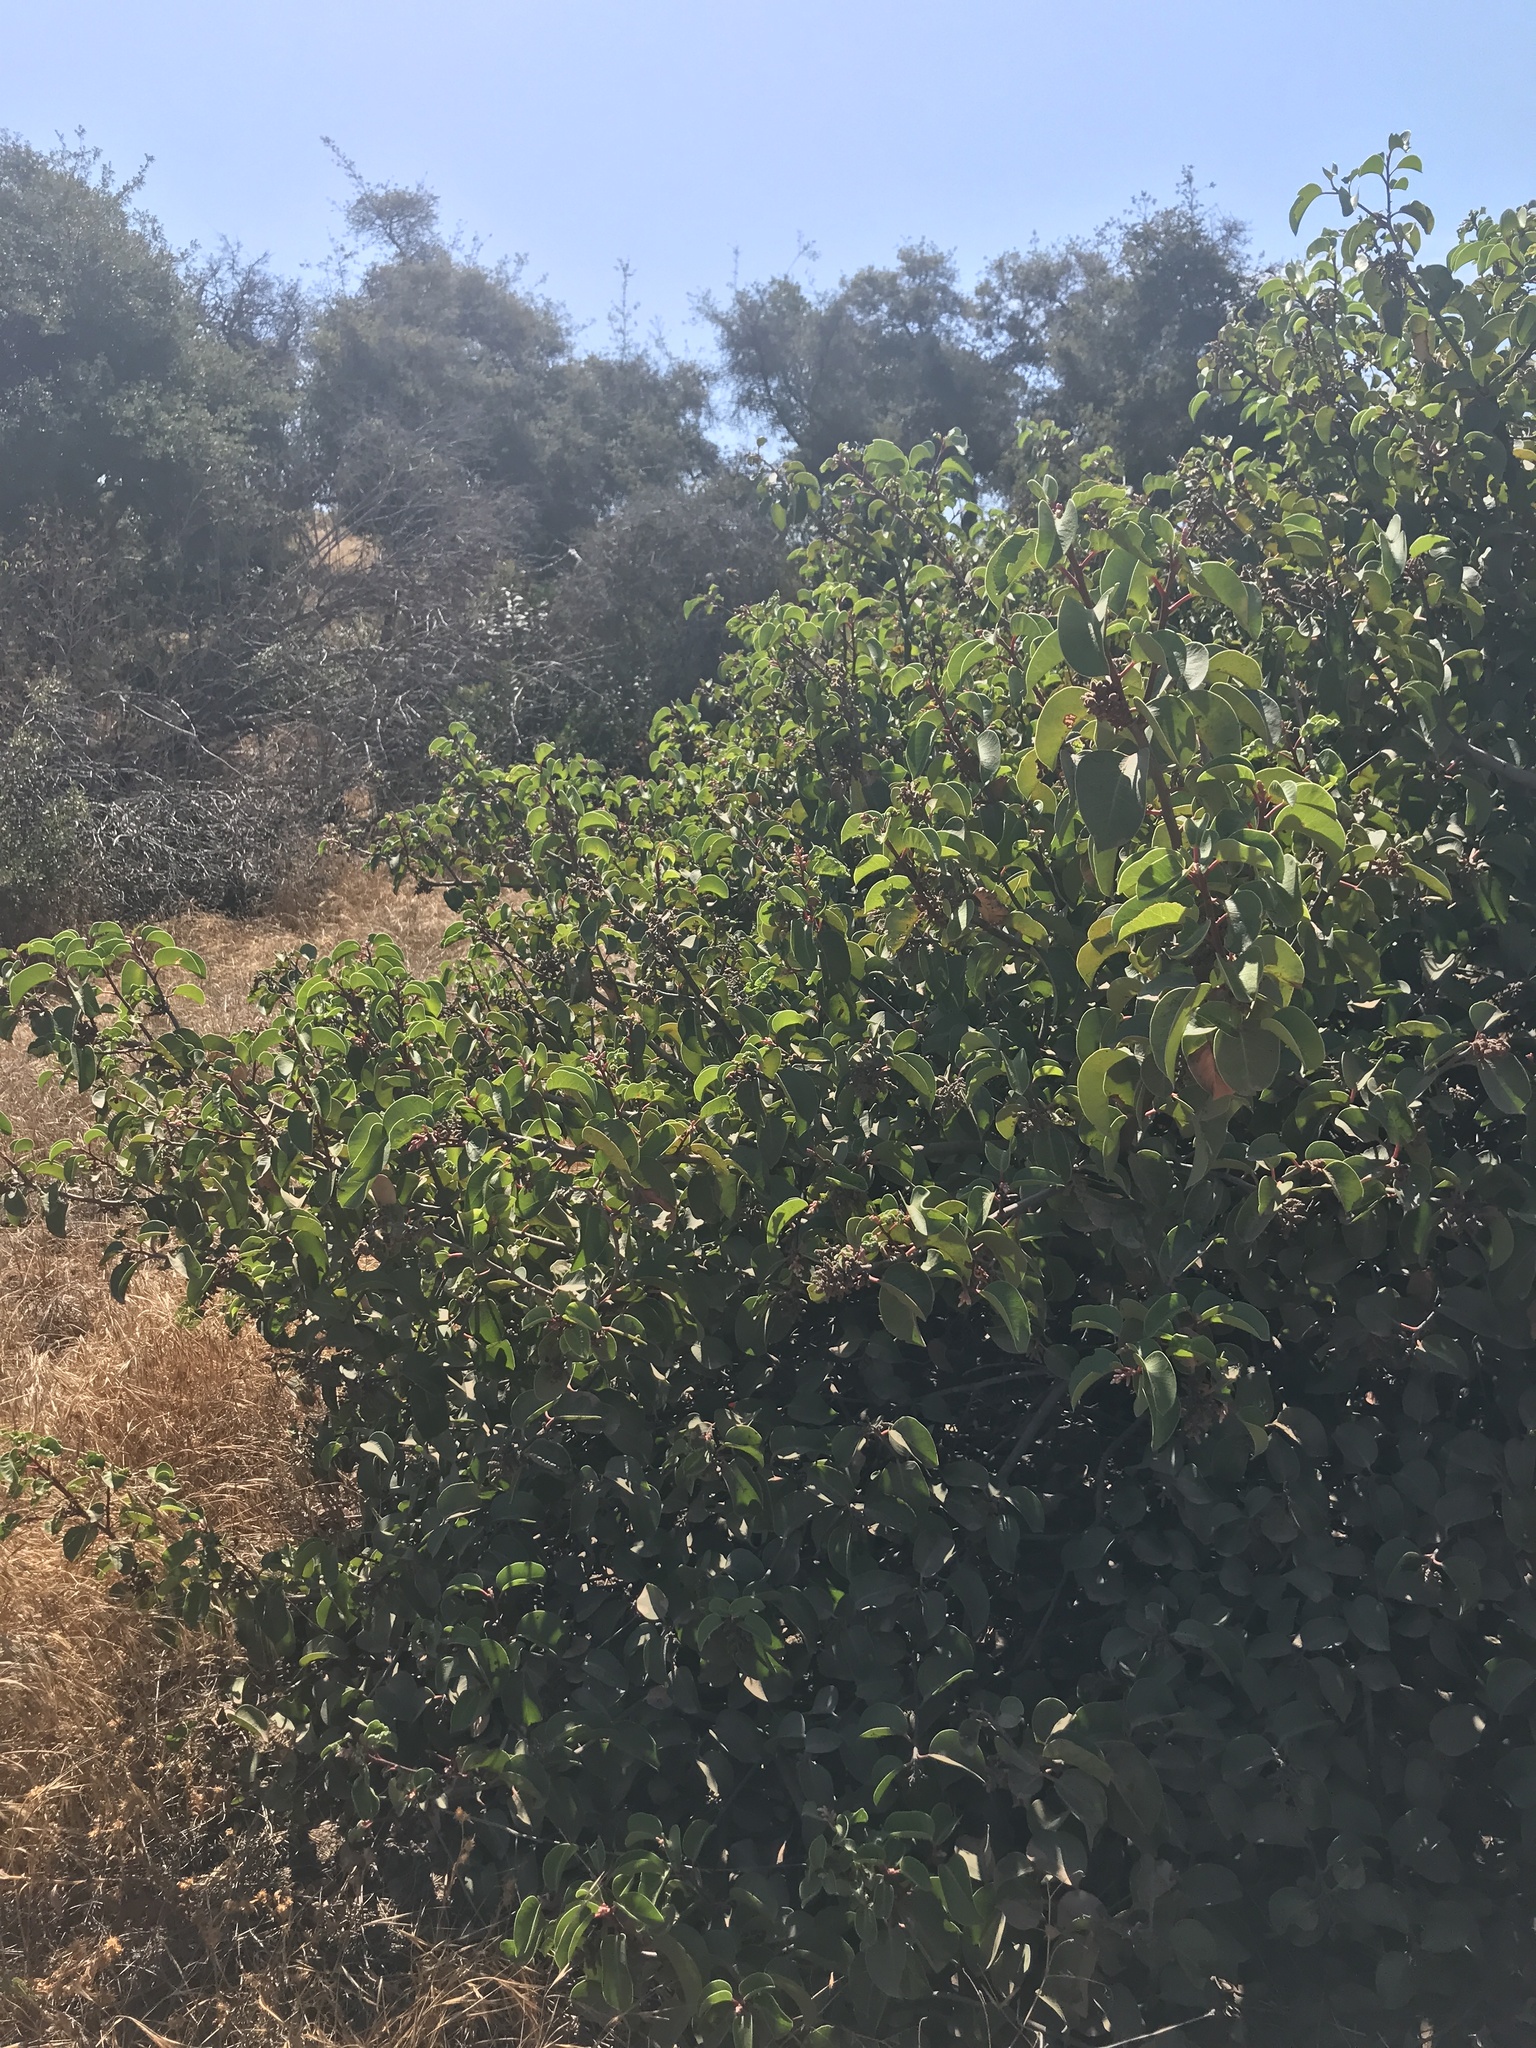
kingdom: Plantae
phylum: Tracheophyta
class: Magnoliopsida
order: Sapindales
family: Anacardiaceae
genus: Rhus
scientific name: Rhus ovata
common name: Sugar sumac
